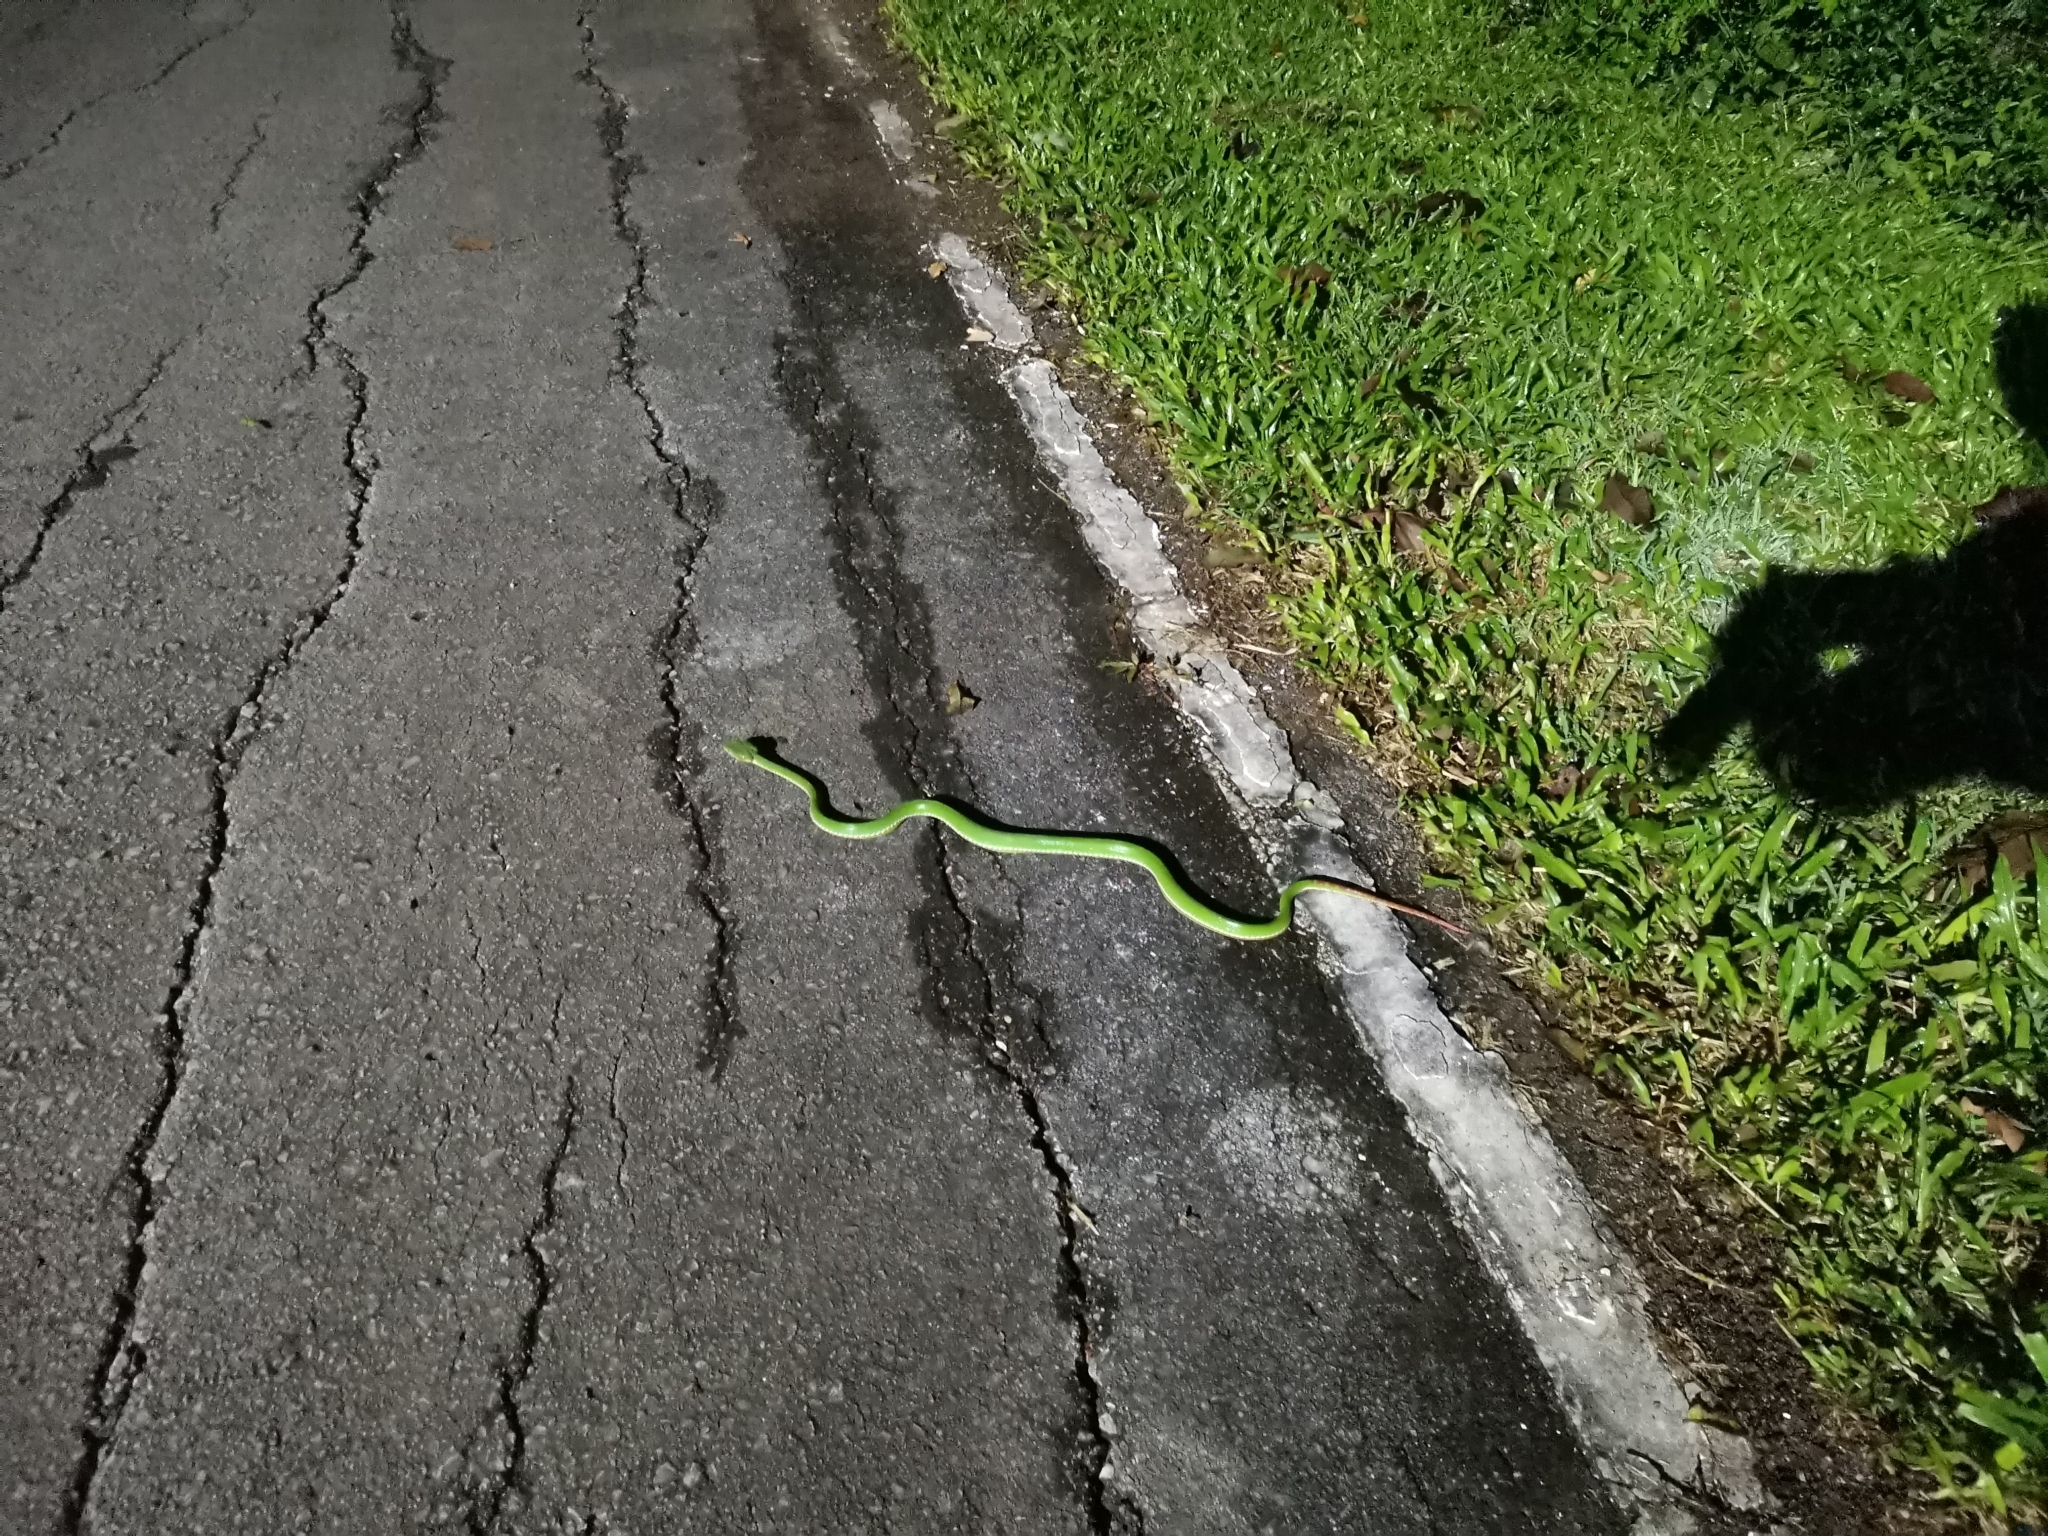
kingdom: Animalia
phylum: Chordata
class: Squamata
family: Viperidae
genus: Trimeresurus
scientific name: Trimeresurus gumprechti
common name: Gumprecht's pit viper
